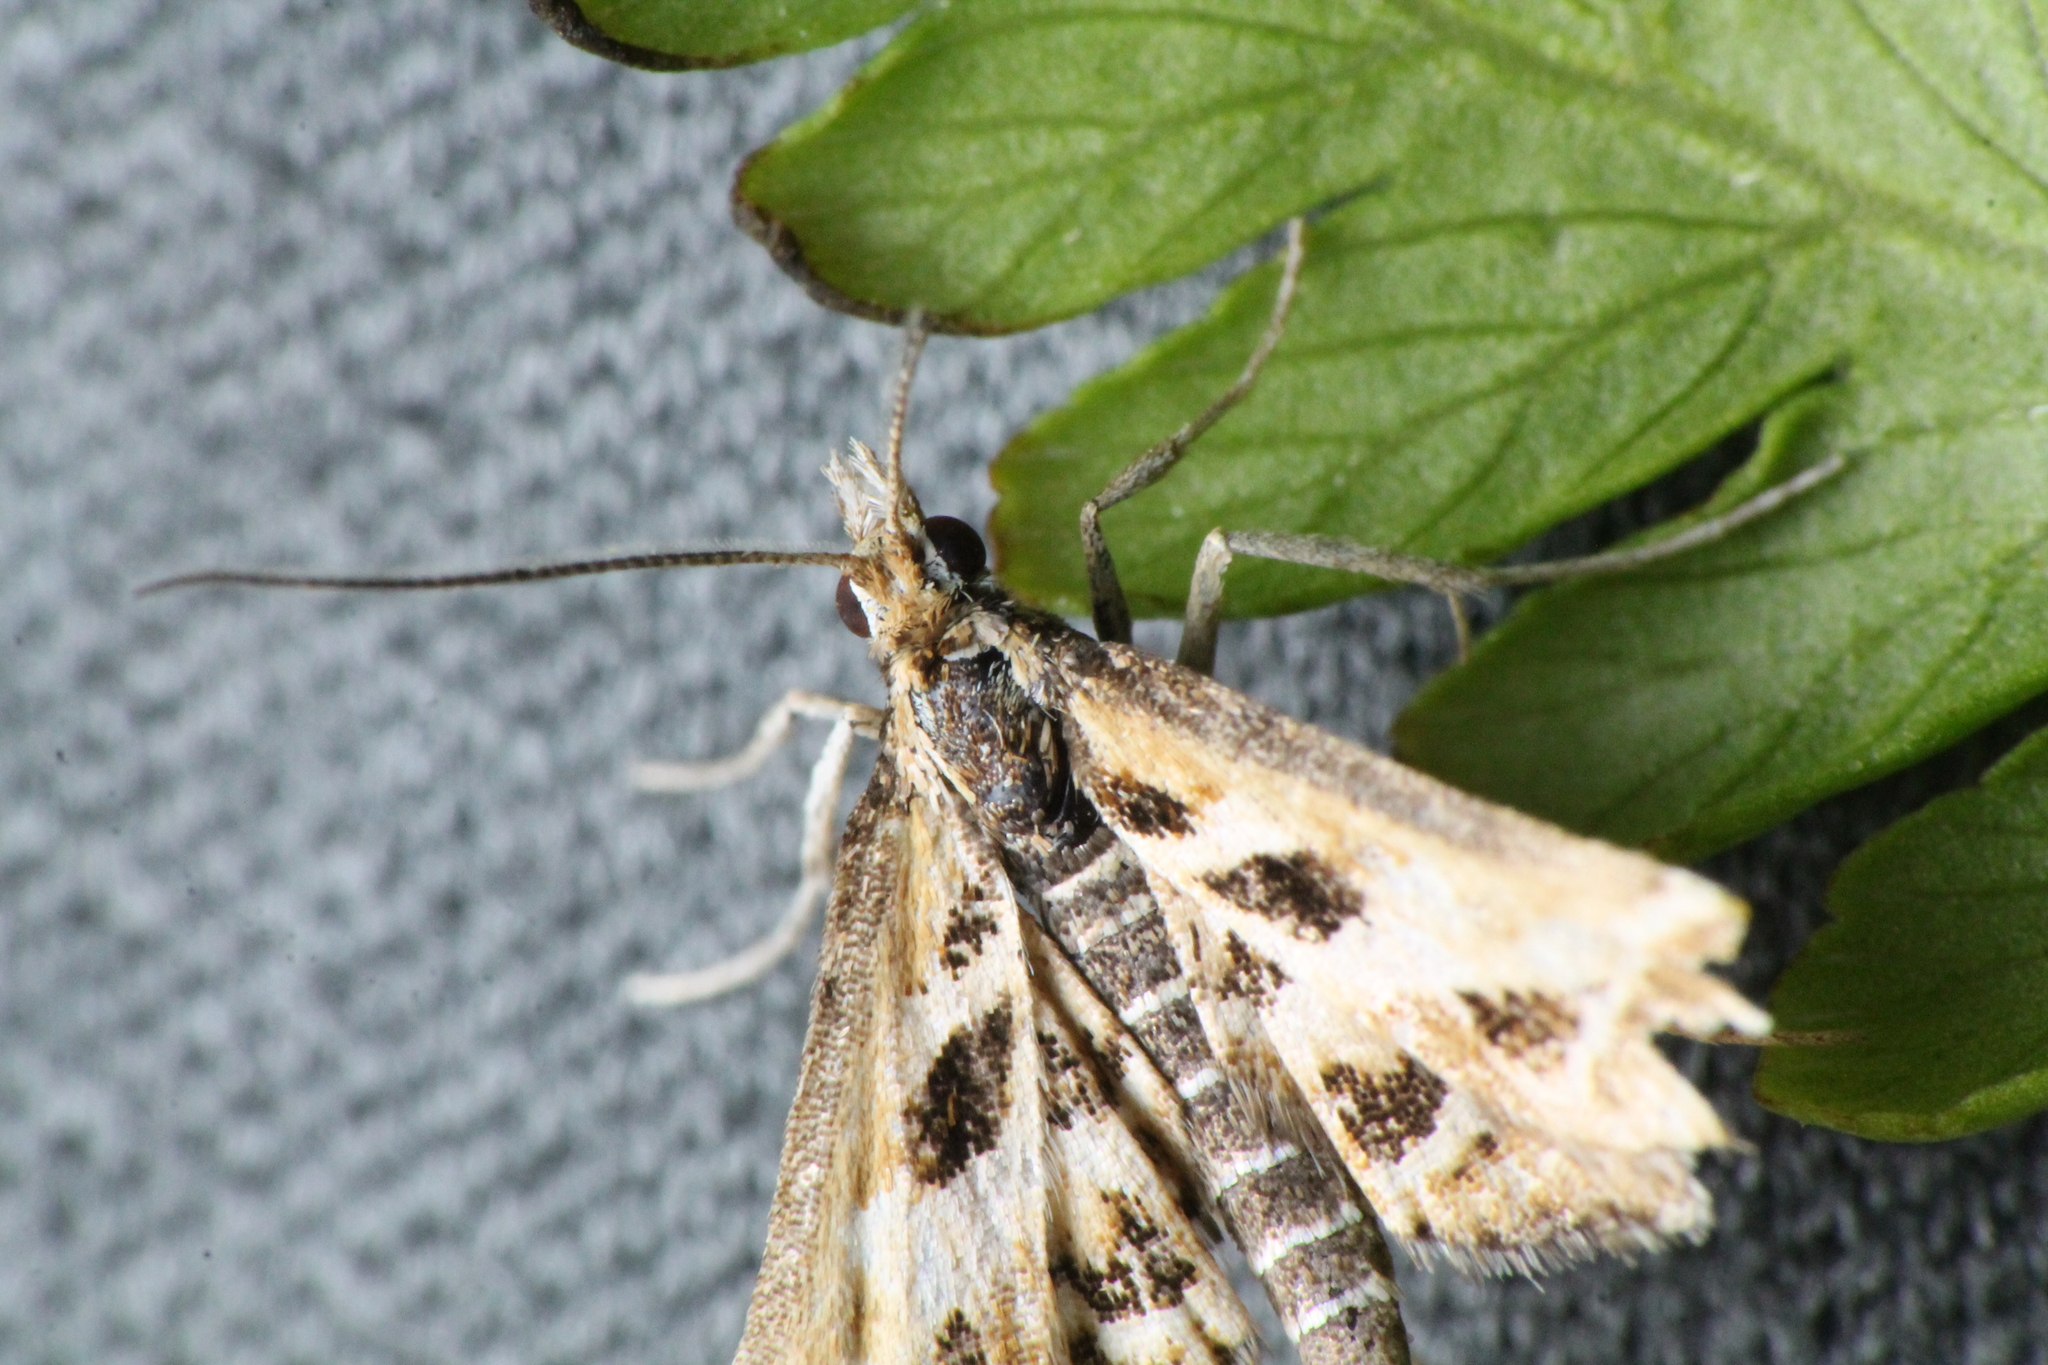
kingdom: Animalia
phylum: Arthropoda
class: Insecta
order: Lepidoptera
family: Crambidae
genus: Diasemia
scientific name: Diasemia grammalis
